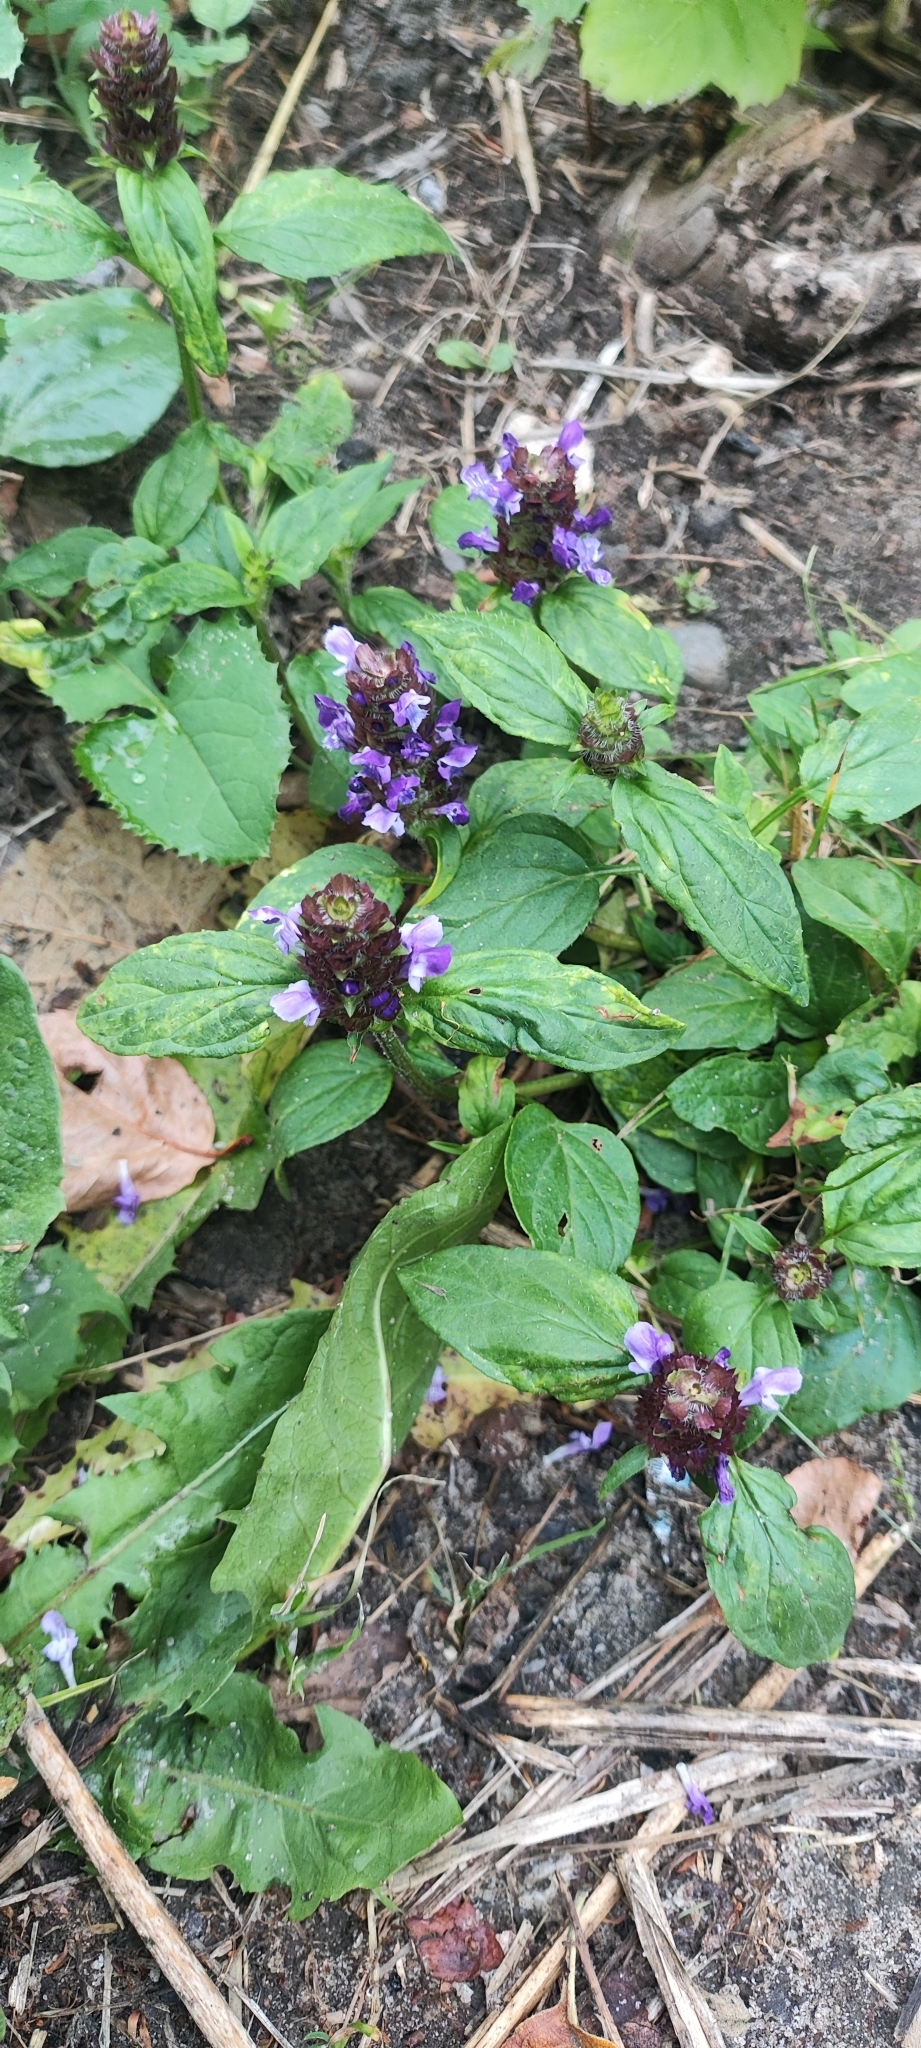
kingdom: Plantae
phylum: Tracheophyta
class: Magnoliopsida
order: Lamiales
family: Lamiaceae
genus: Prunella
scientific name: Prunella vulgaris
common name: Heal-all
